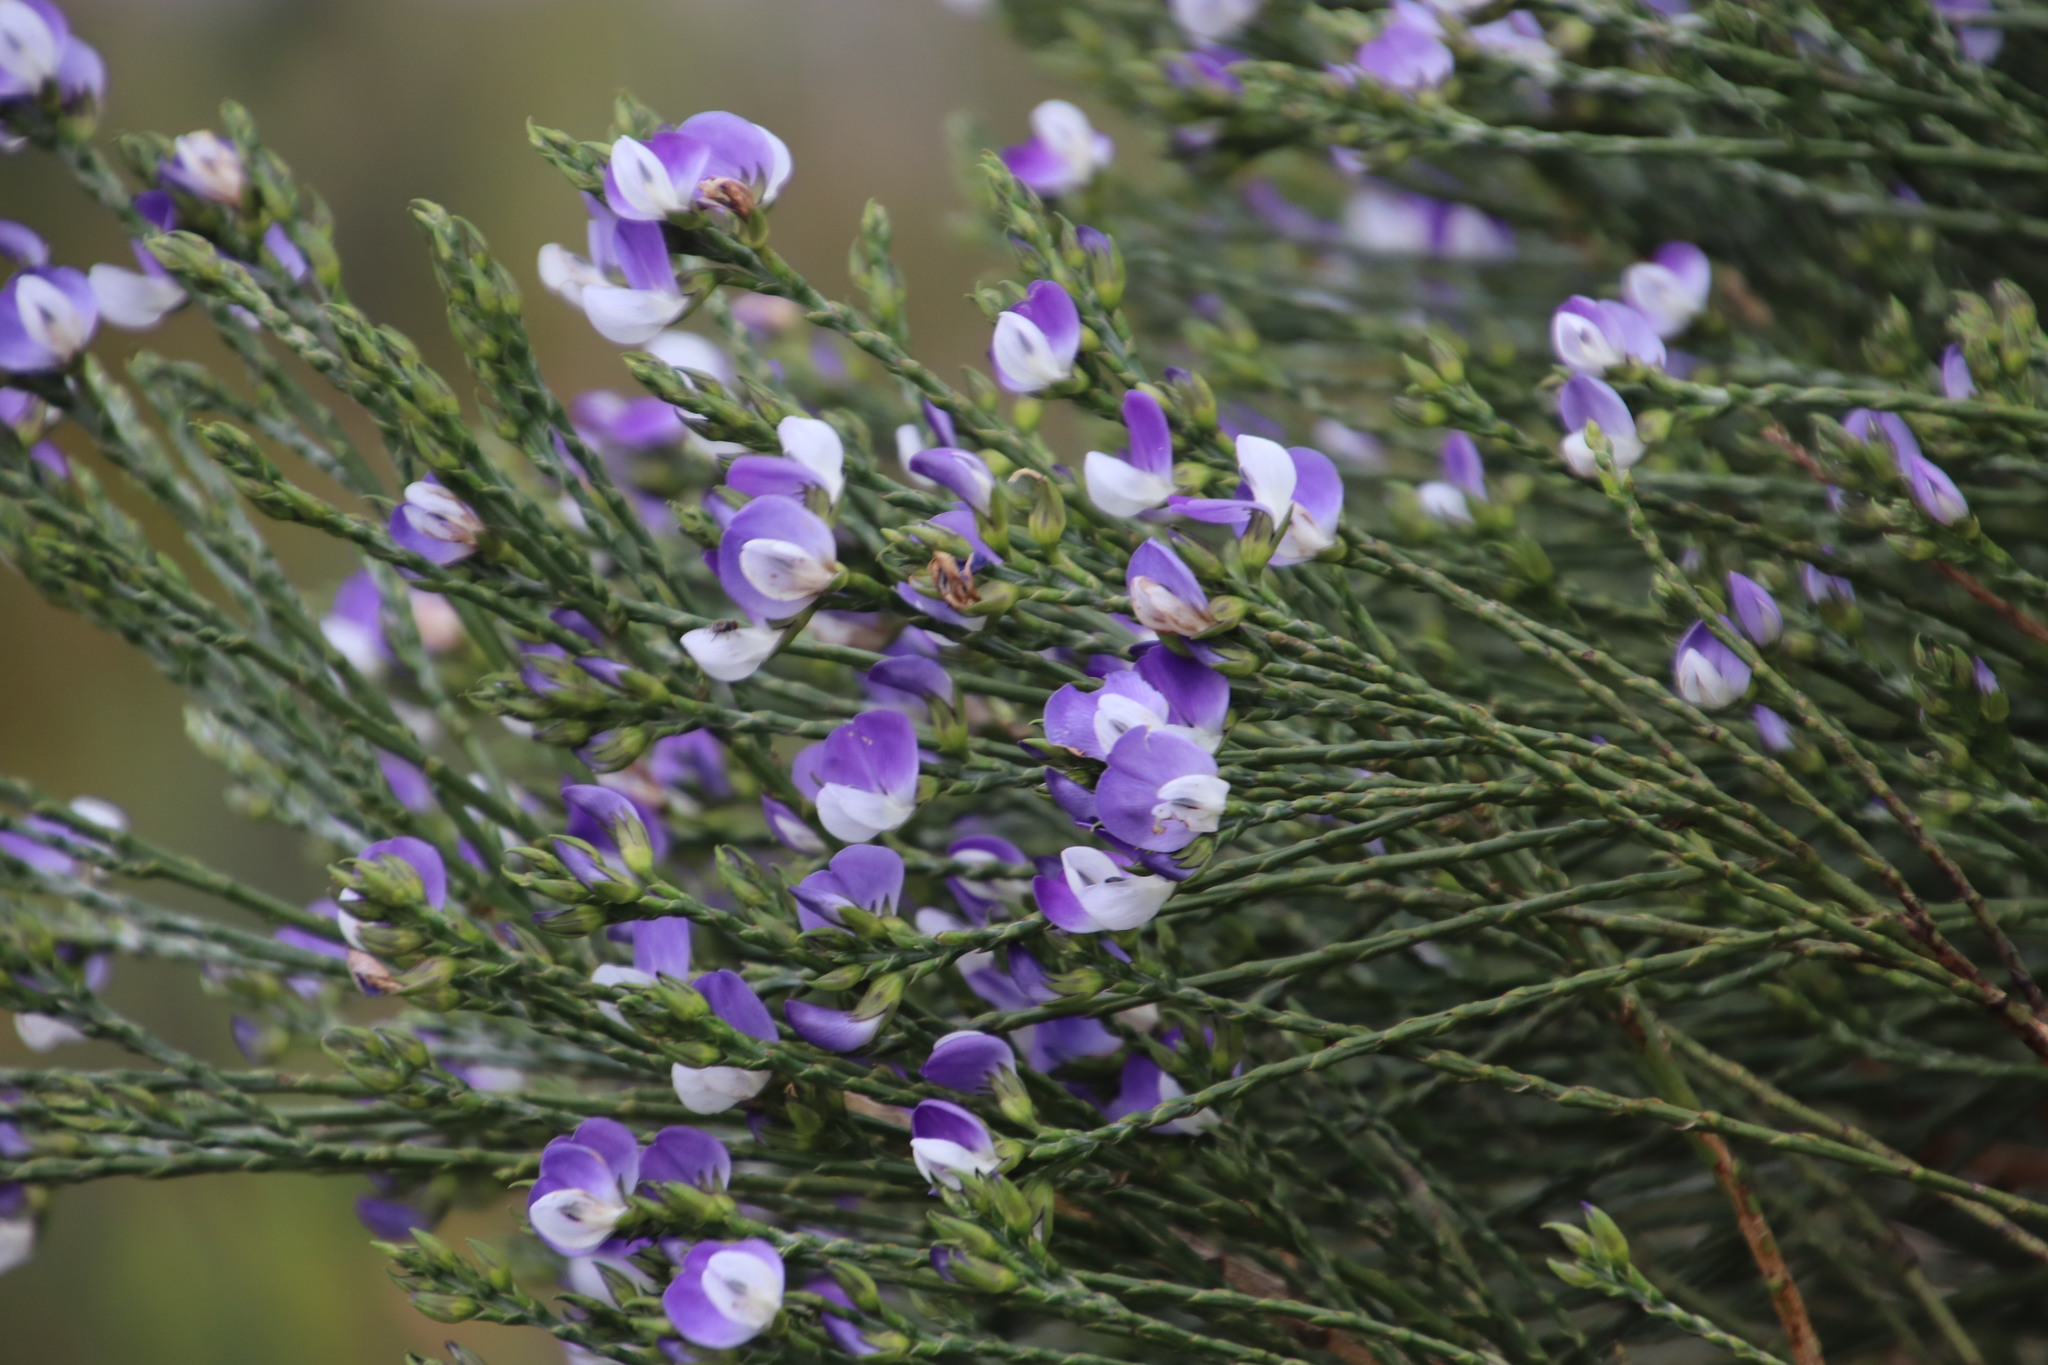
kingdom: Plantae
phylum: Tracheophyta
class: Magnoliopsida
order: Fabales
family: Fabaceae
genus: Psoralea
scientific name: Psoralea aphylla
